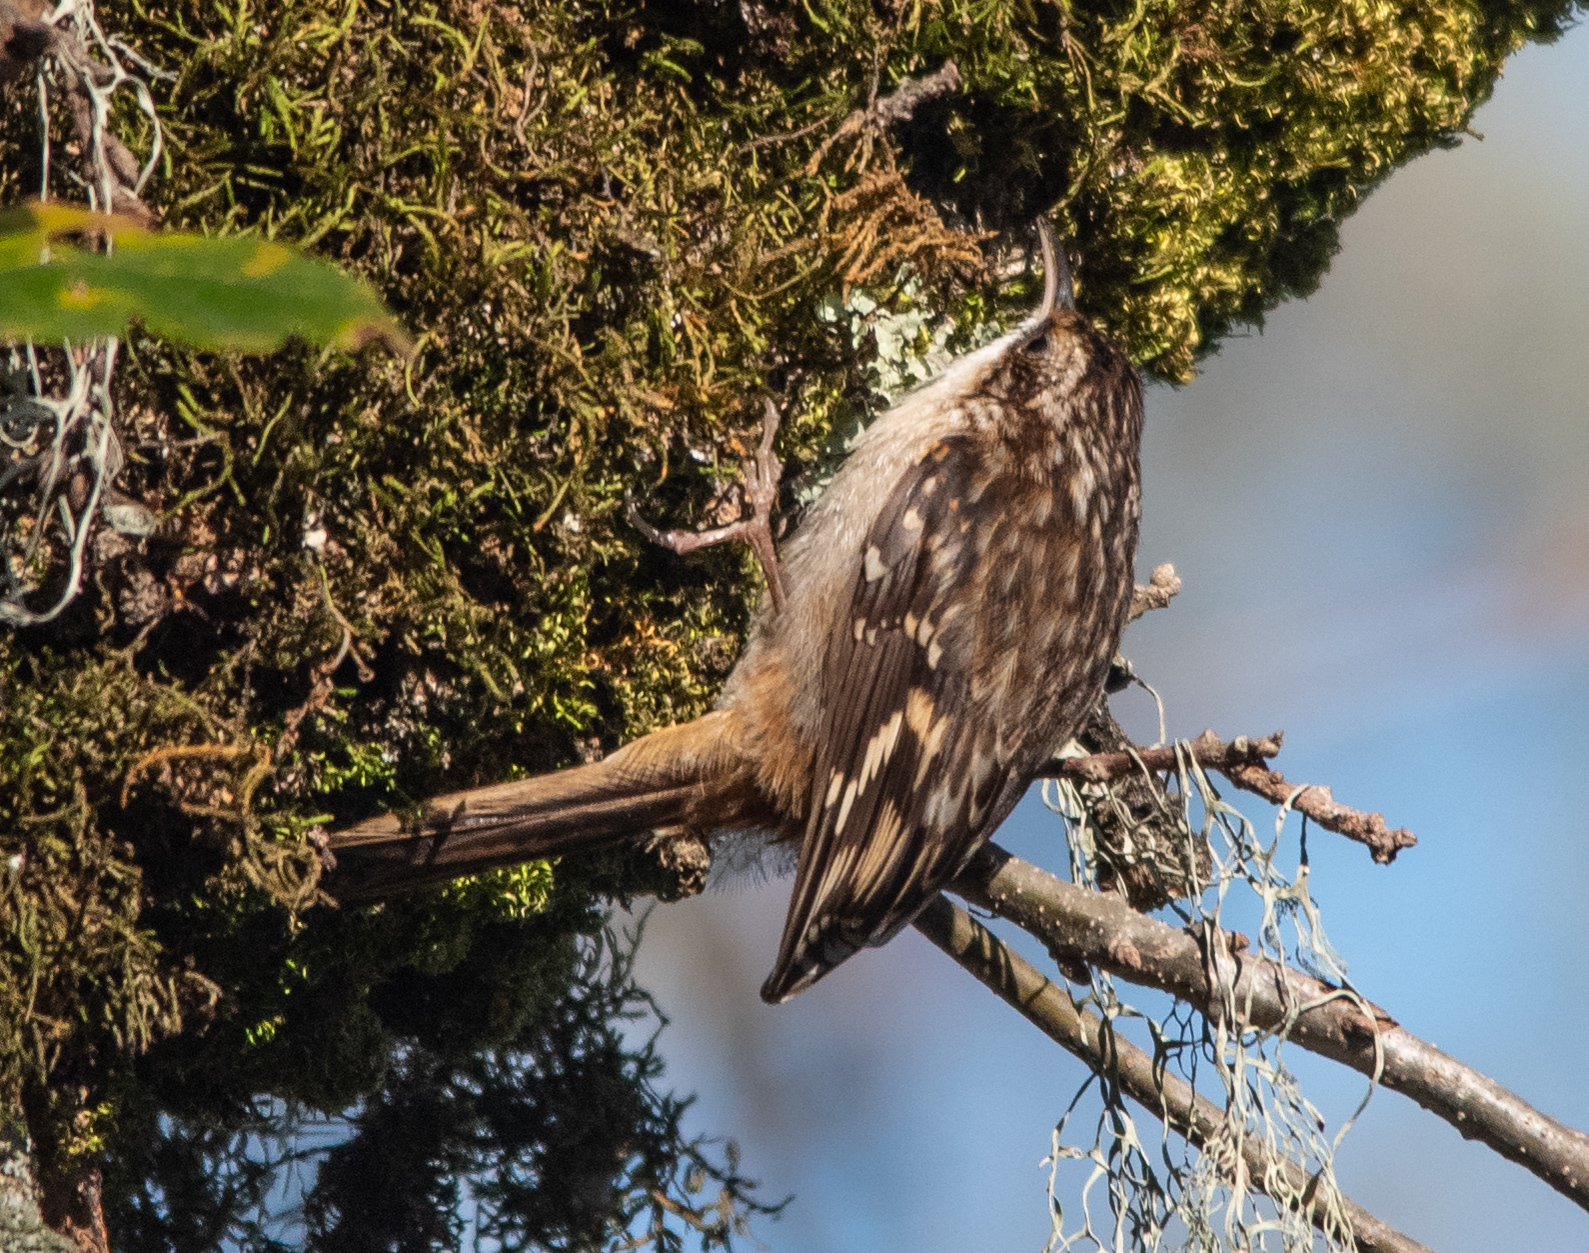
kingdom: Animalia
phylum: Chordata
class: Aves
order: Passeriformes
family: Certhiidae
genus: Certhia
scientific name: Certhia americana
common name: Brown creeper
